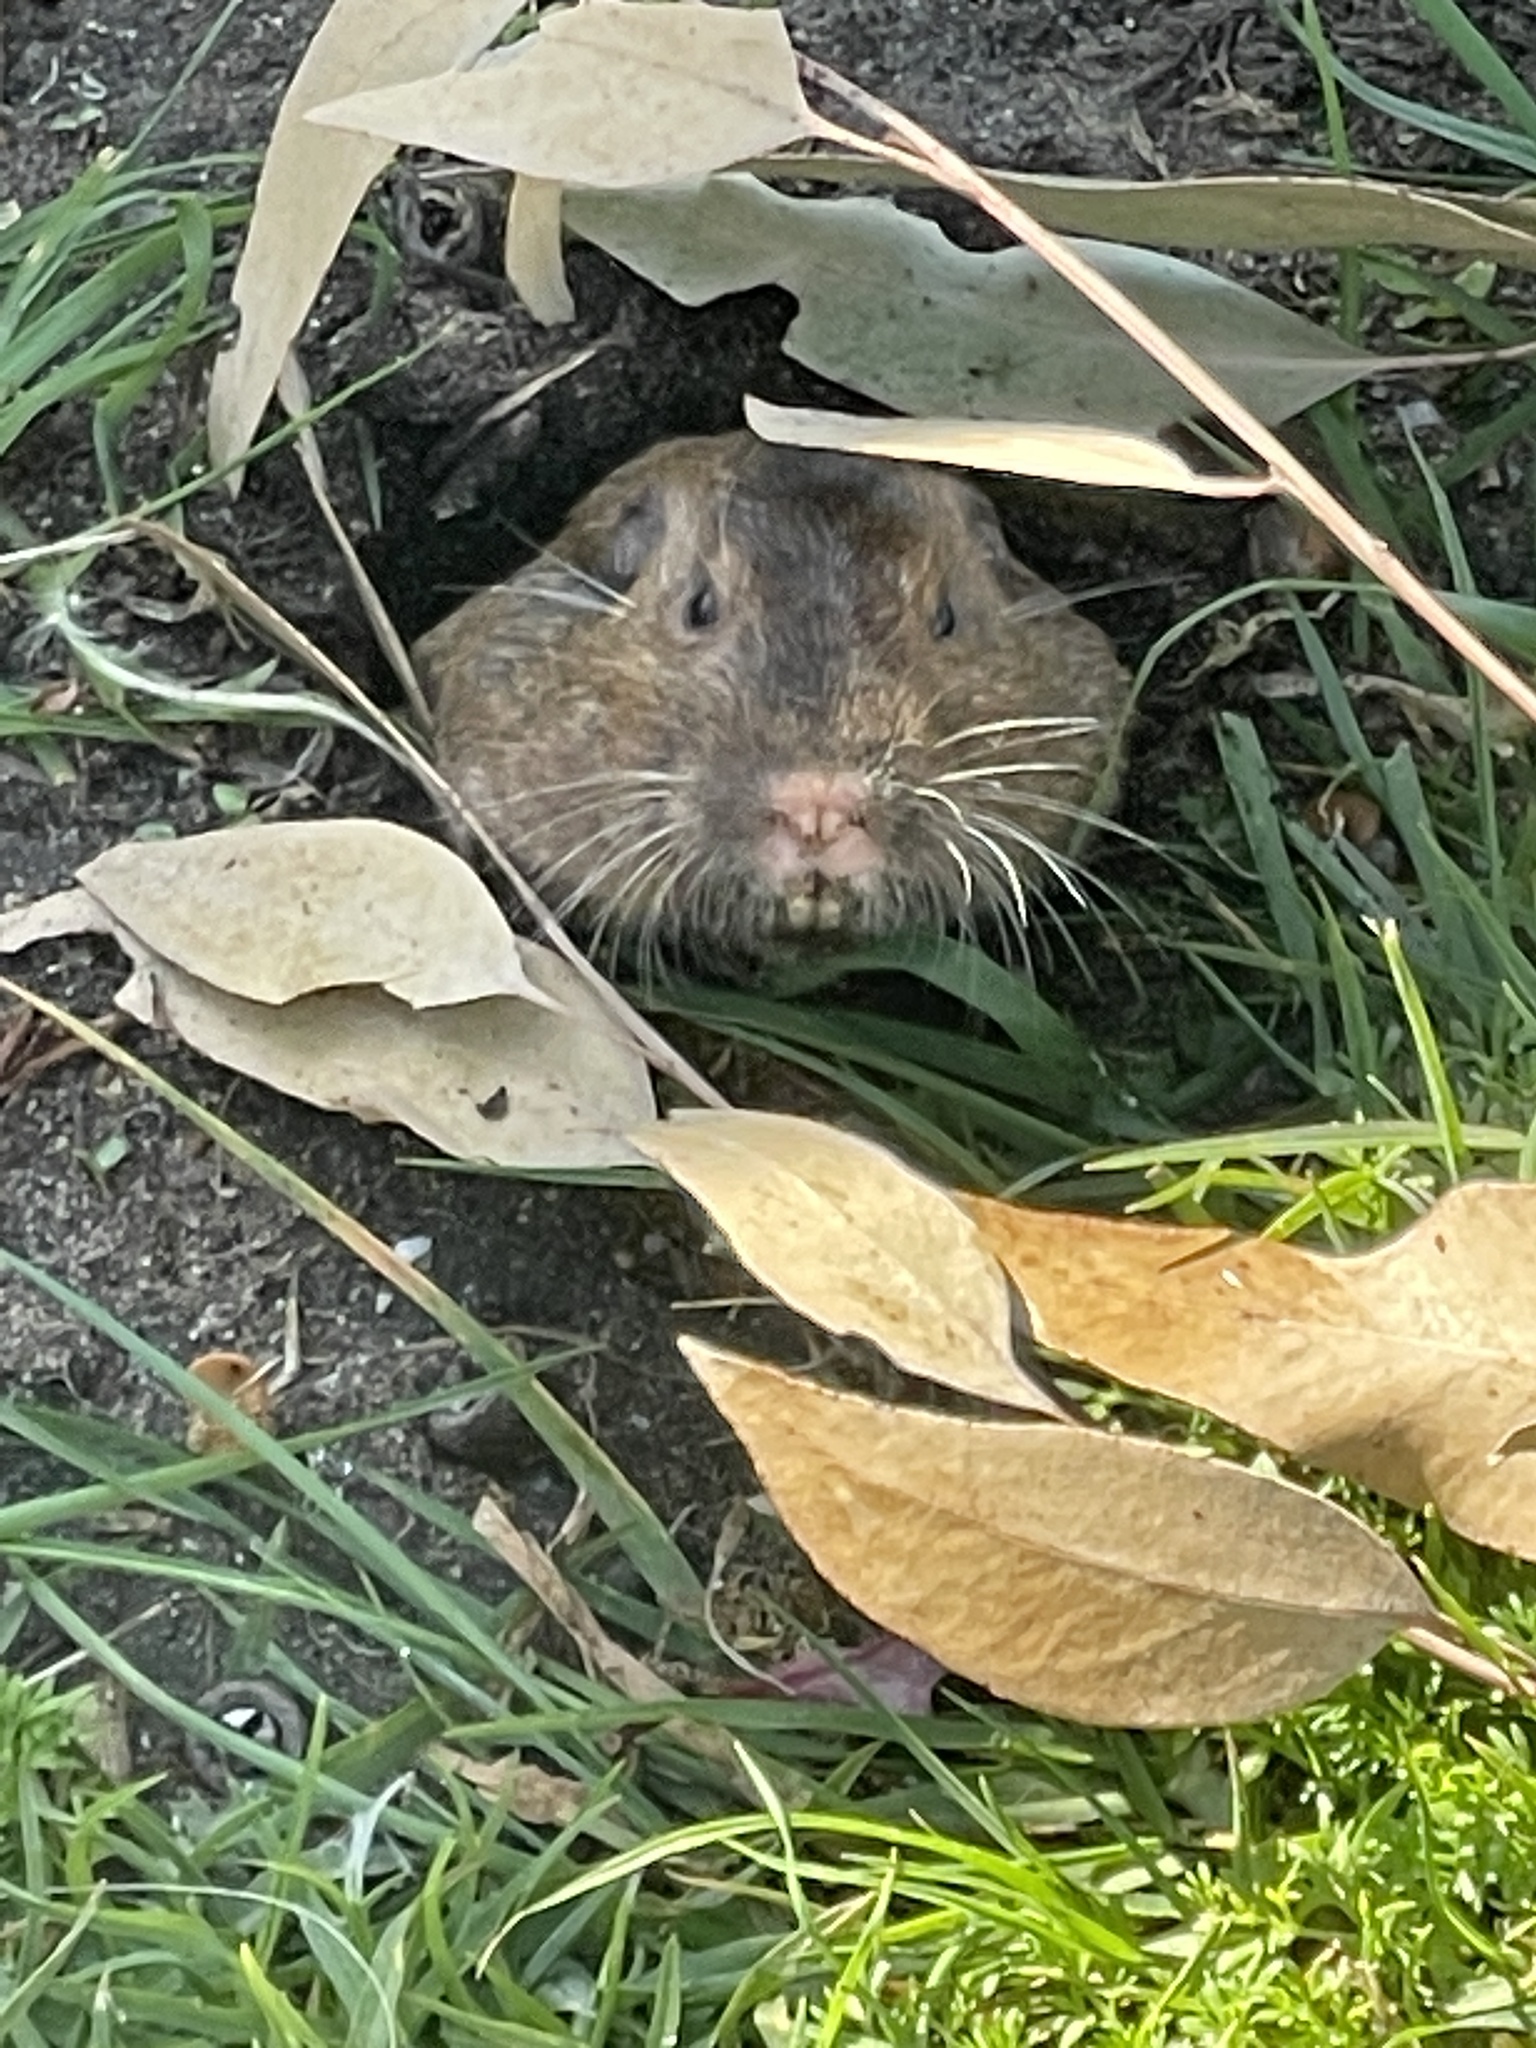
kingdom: Animalia
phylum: Chordata
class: Mammalia
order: Rodentia
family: Geomyidae
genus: Thomomys
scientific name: Thomomys bottae
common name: Botta's pocket gopher
